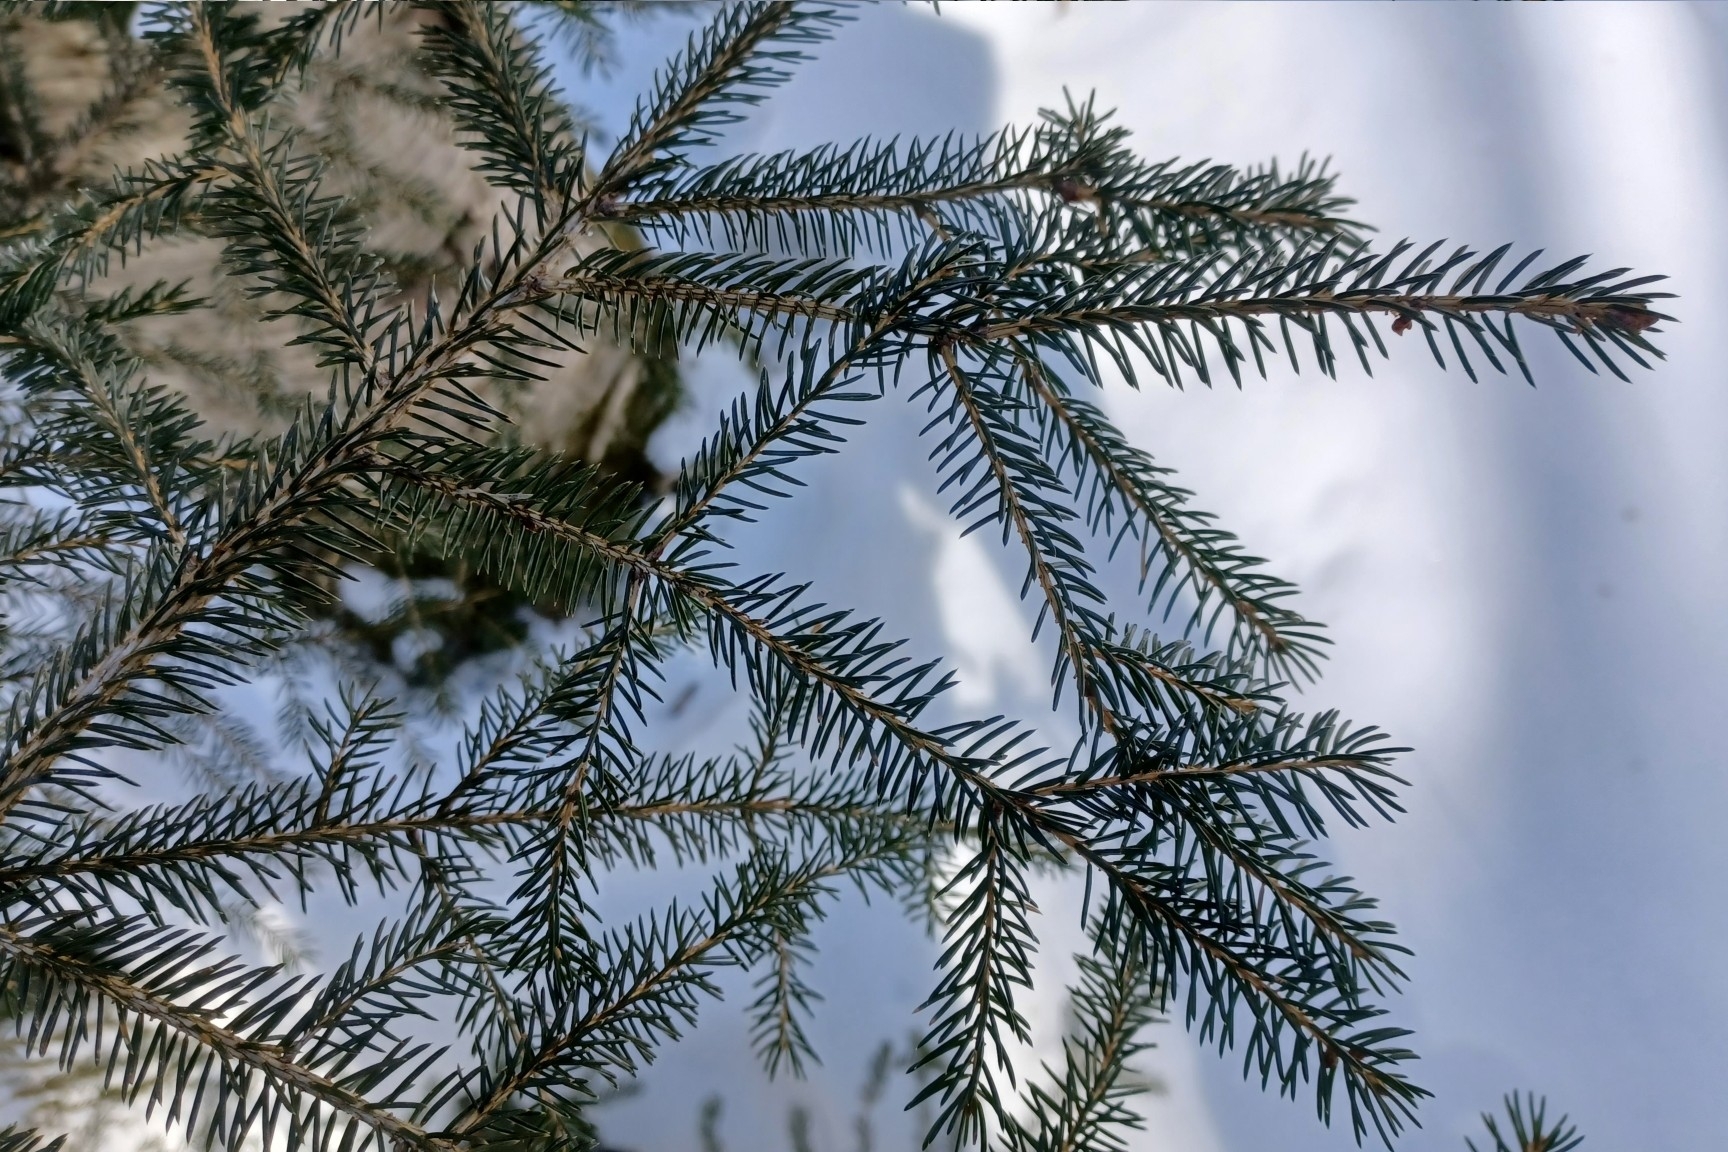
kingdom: Plantae
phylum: Tracheophyta
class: Pinopsida
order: Pinales
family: Pinaceae
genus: Picea
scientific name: Picea rubens
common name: Red spruce
